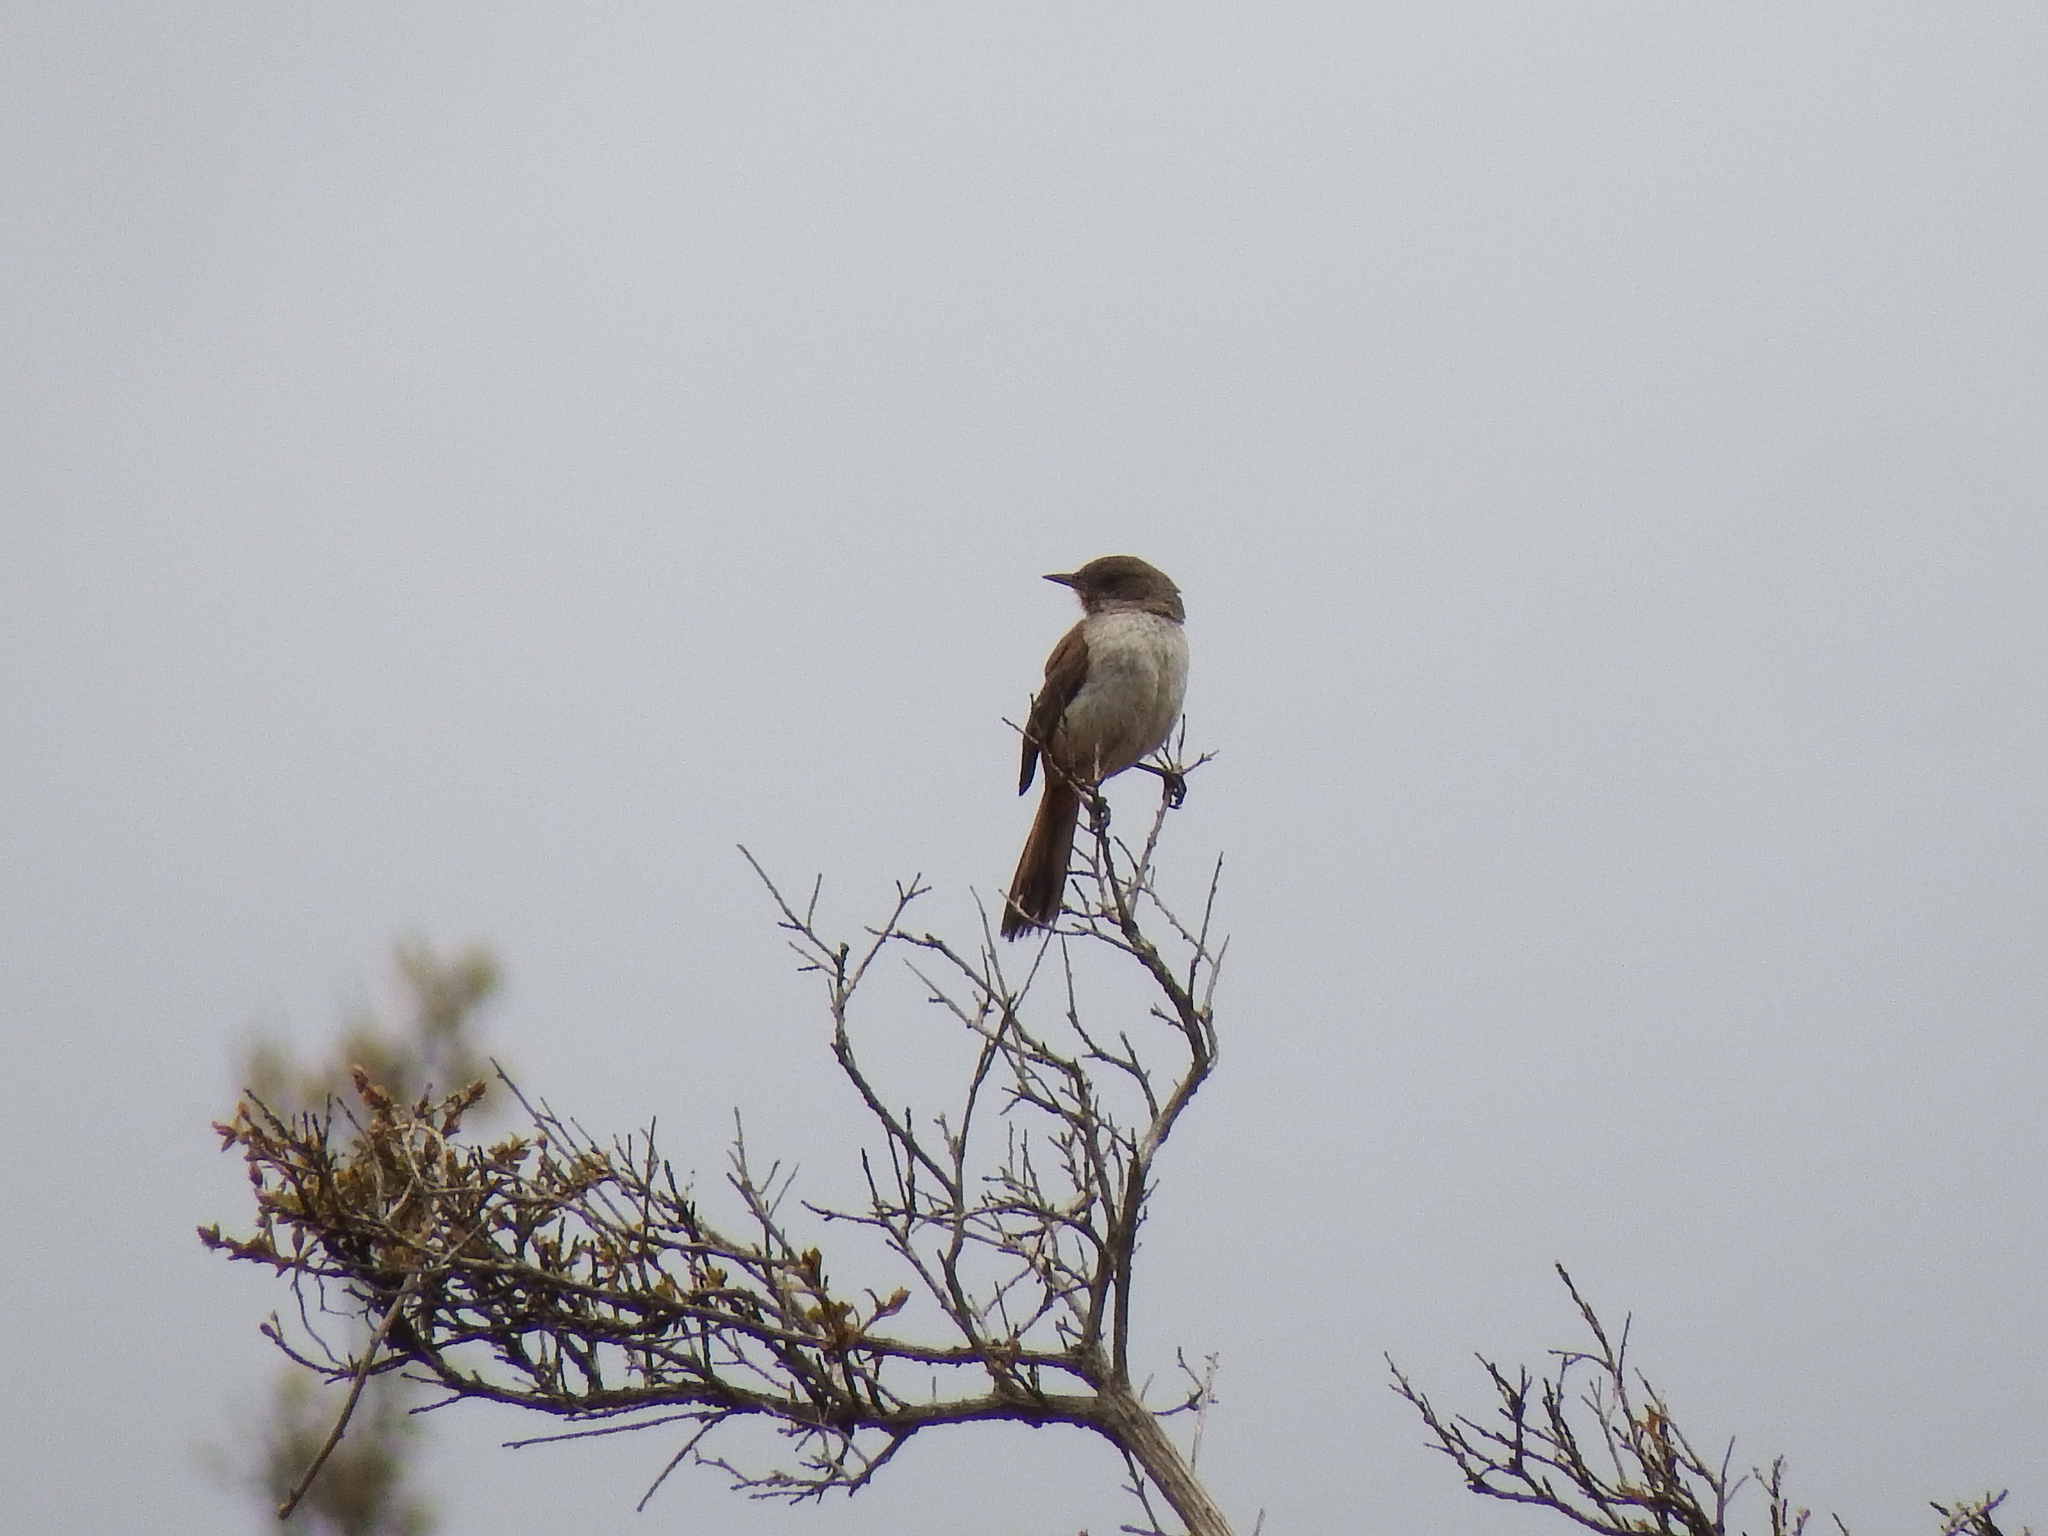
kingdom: Animalia
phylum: Chordata
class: Aves
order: Passeriformes
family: Furnariidae
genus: Asthenes
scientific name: Asthenes dorbignyi
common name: Rusty-vented canastero
